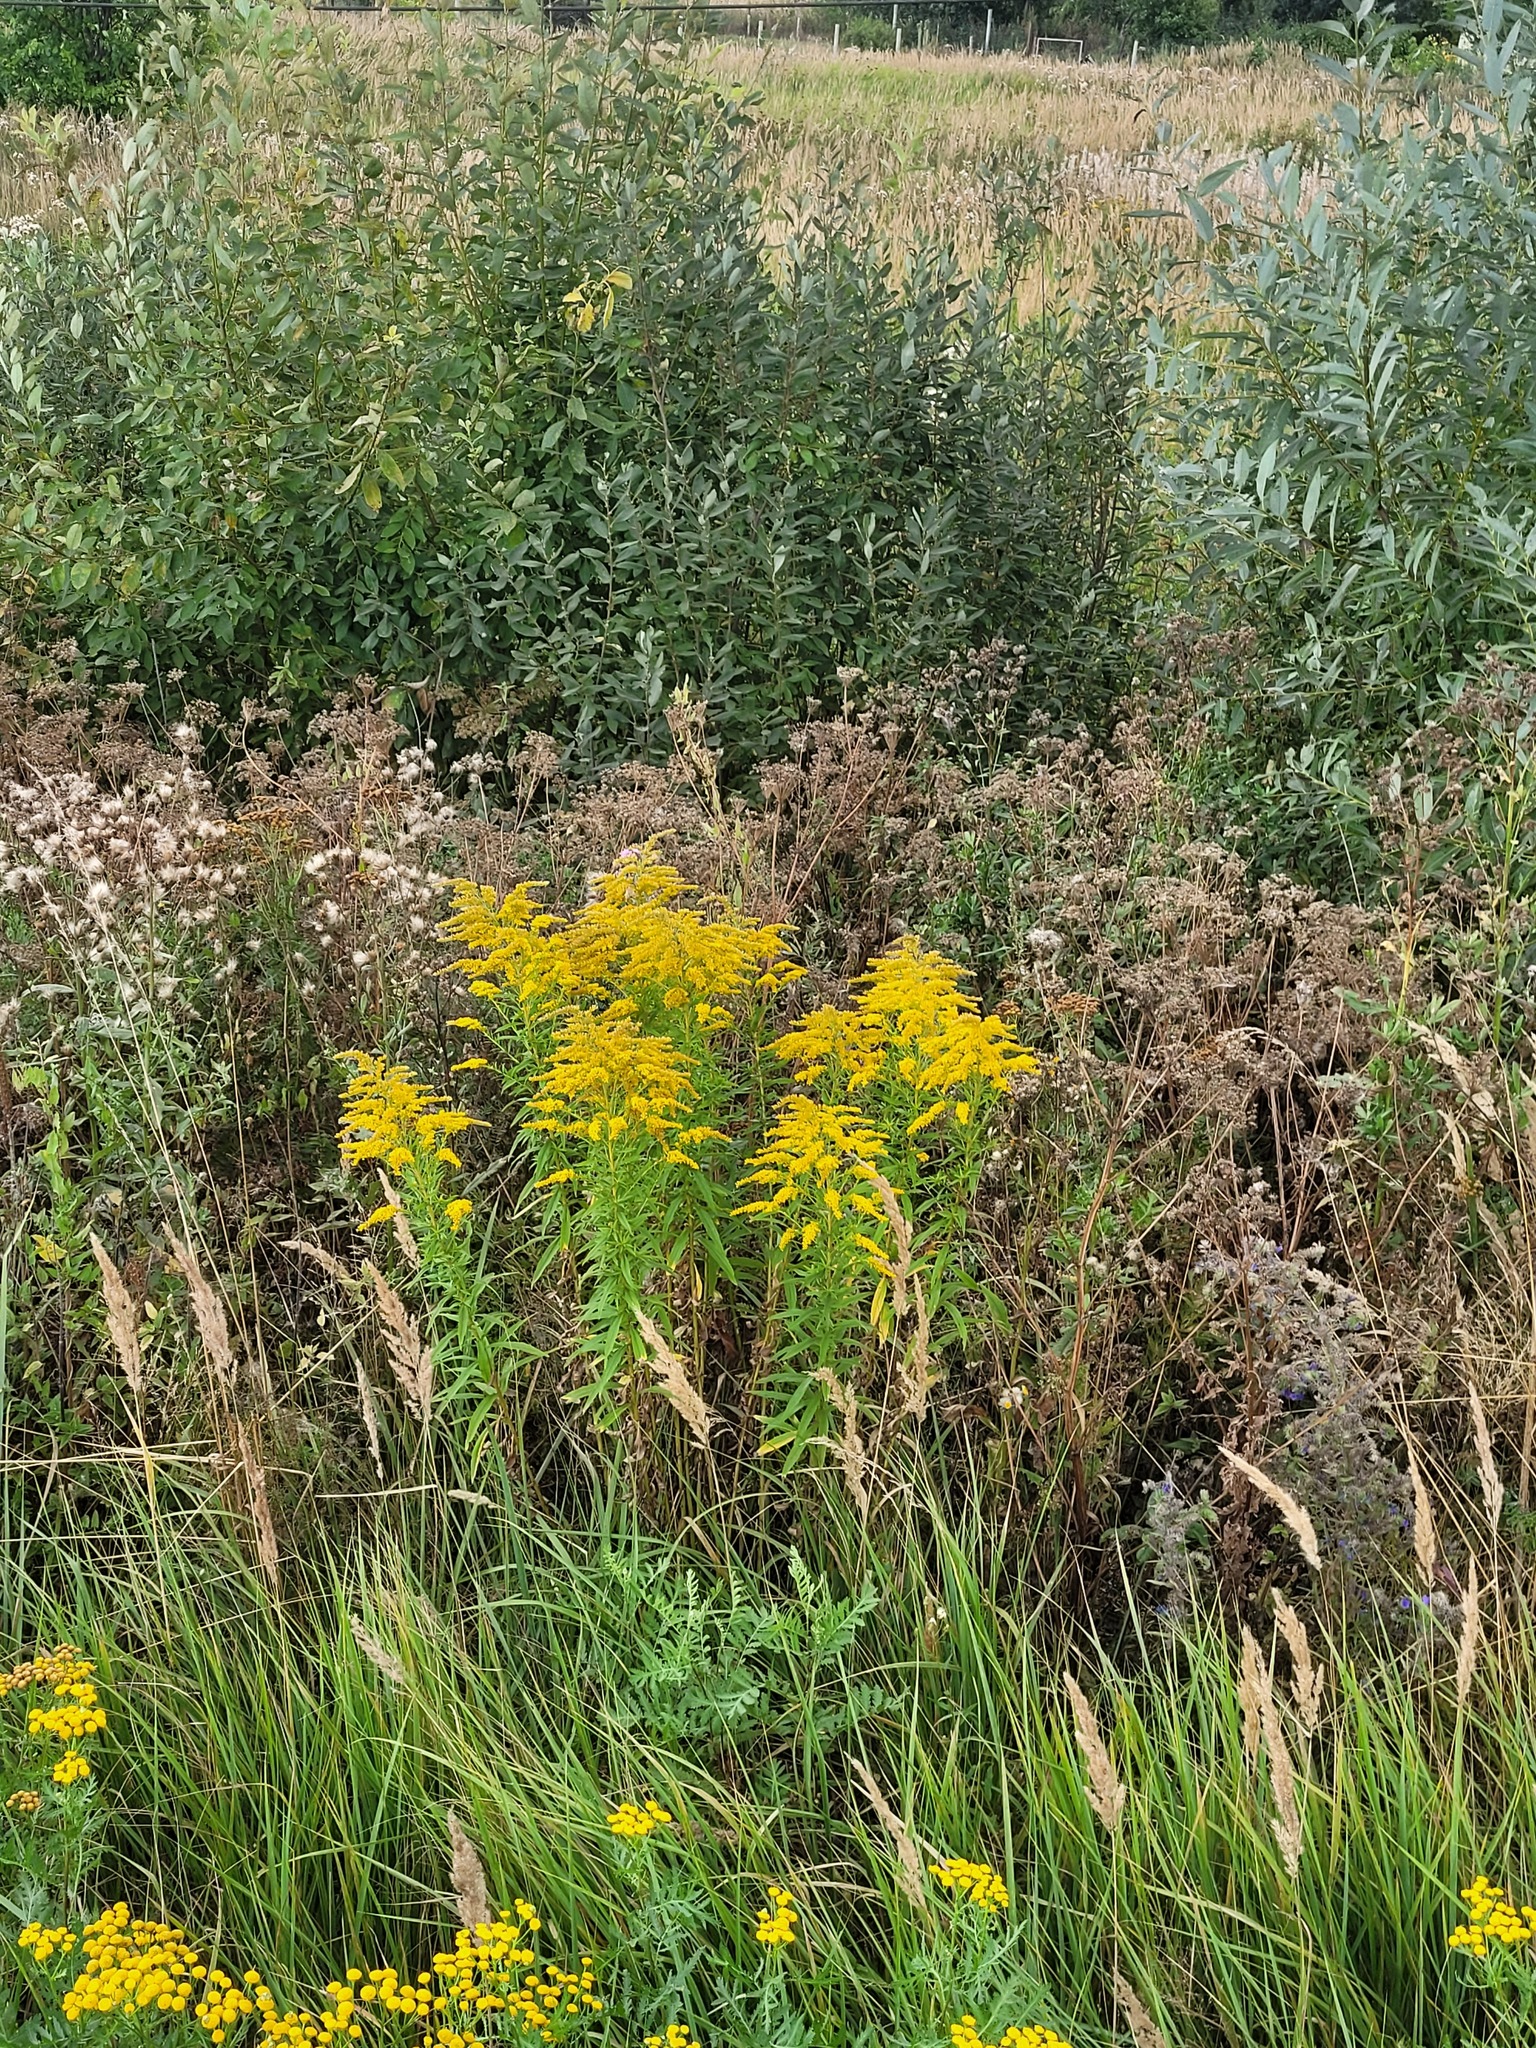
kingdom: Plantae
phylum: Tracheophyta
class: Magnoliopsida
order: Asterales
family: Asteraceae
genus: Solidago
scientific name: Solidago canadensis
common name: Canada goldenrod
